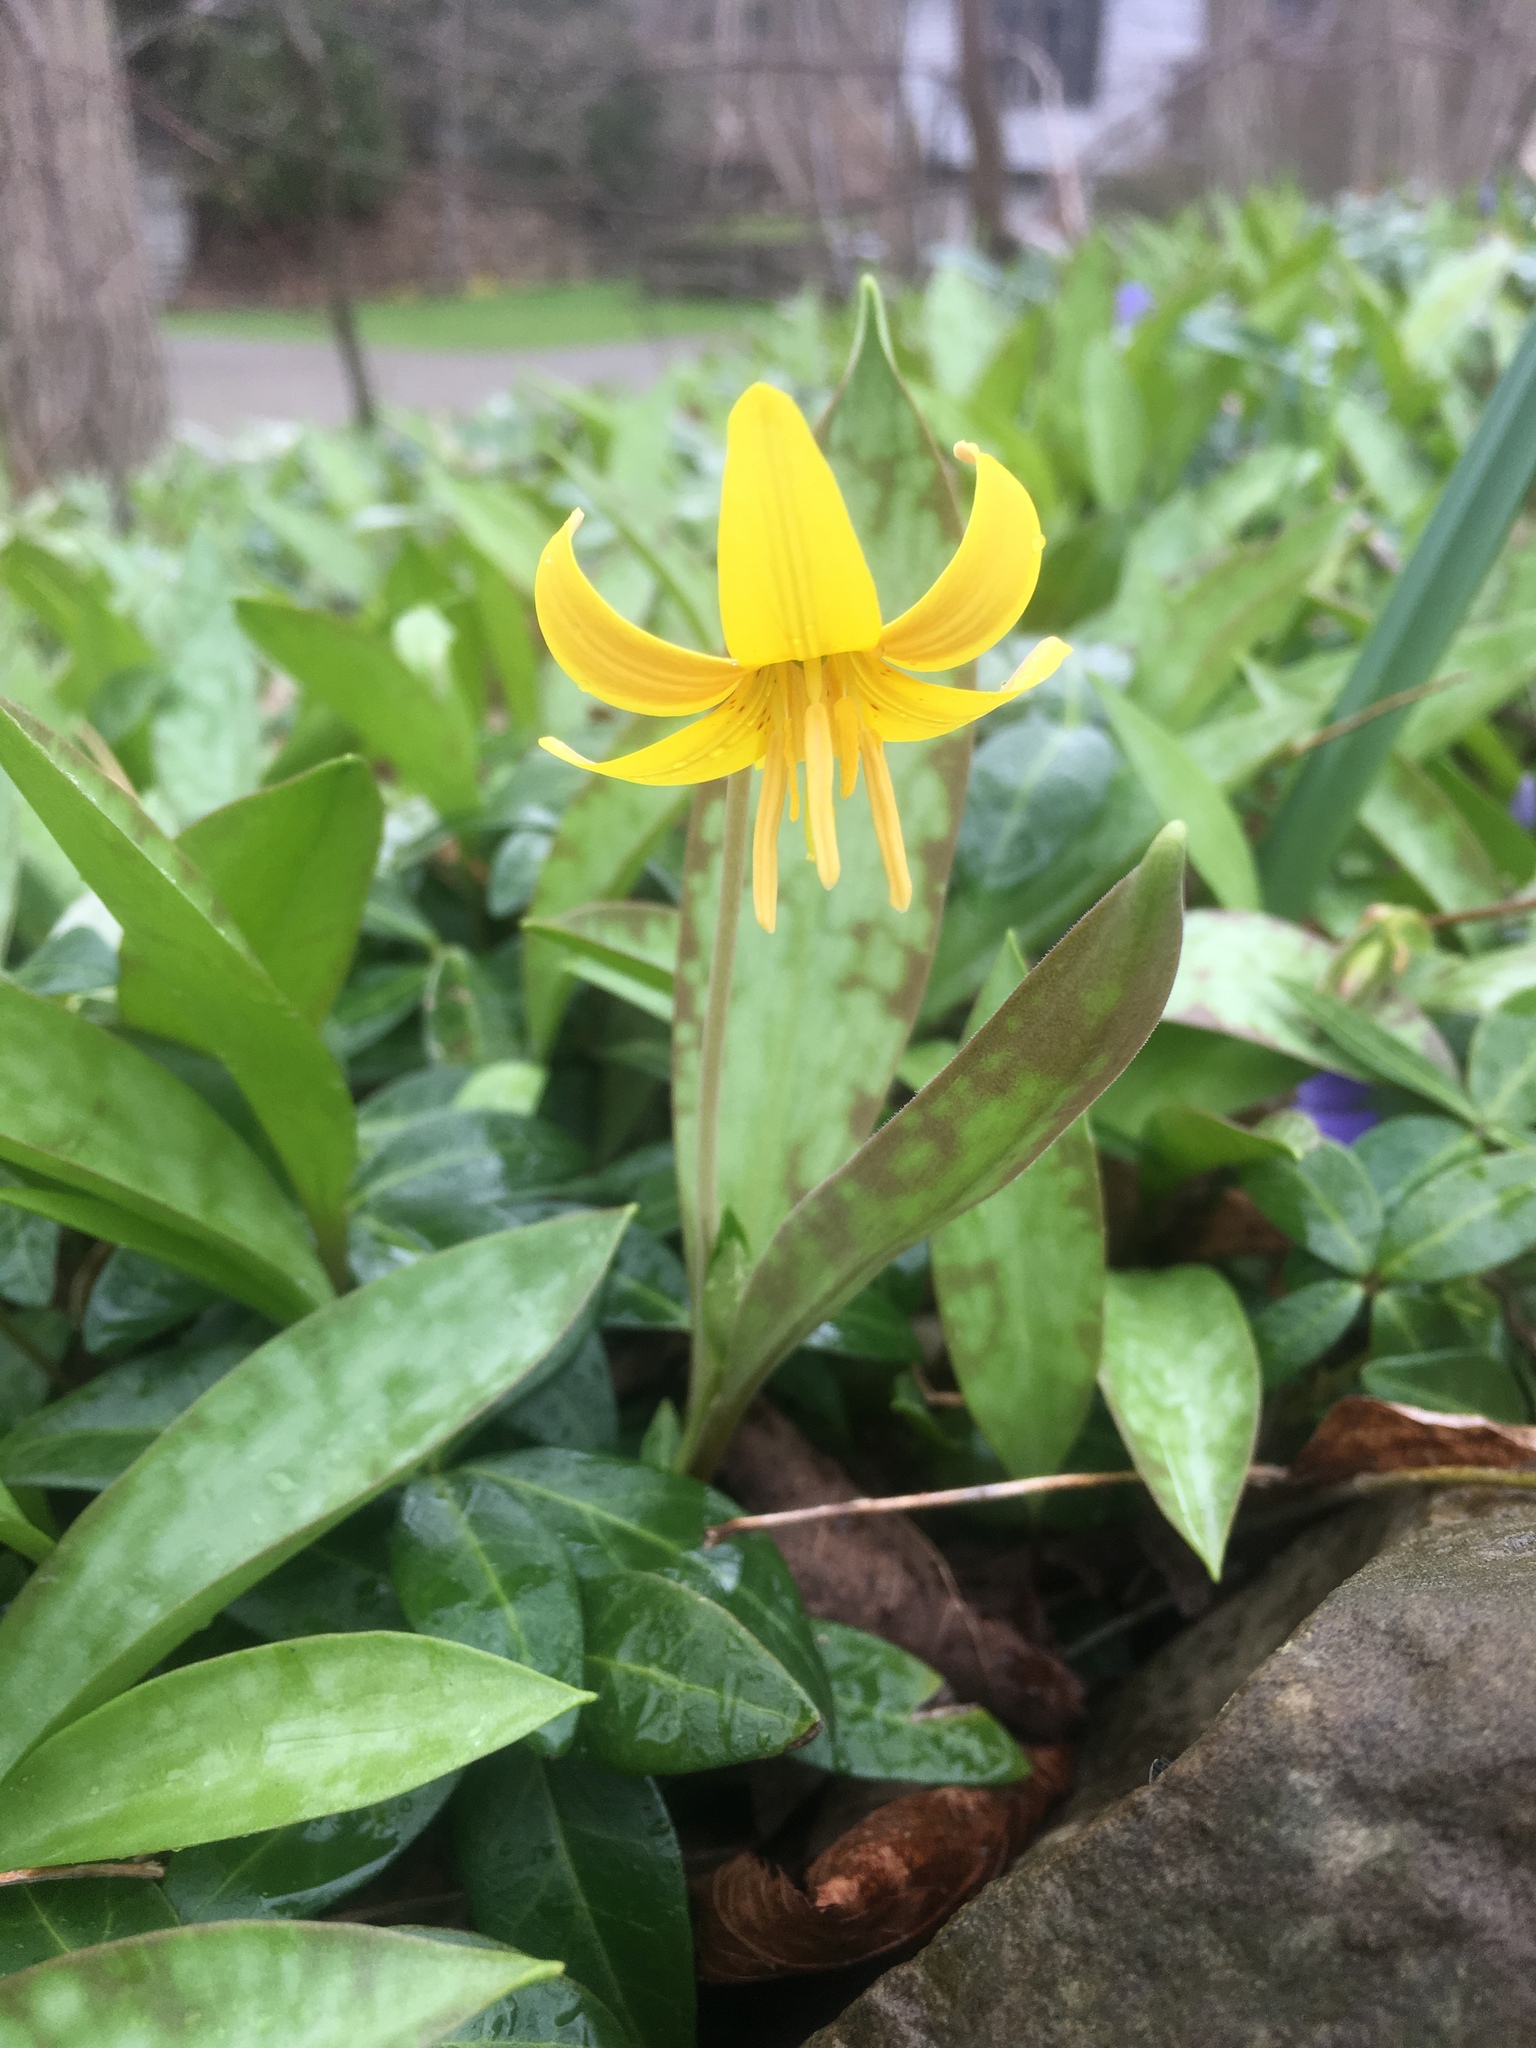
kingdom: Plantae
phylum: Tracheophyta
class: Liliopsida
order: Liliales
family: Liliaceae
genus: Erythronium
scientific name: Erythronium americanum
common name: Yellow adder's-tongue
